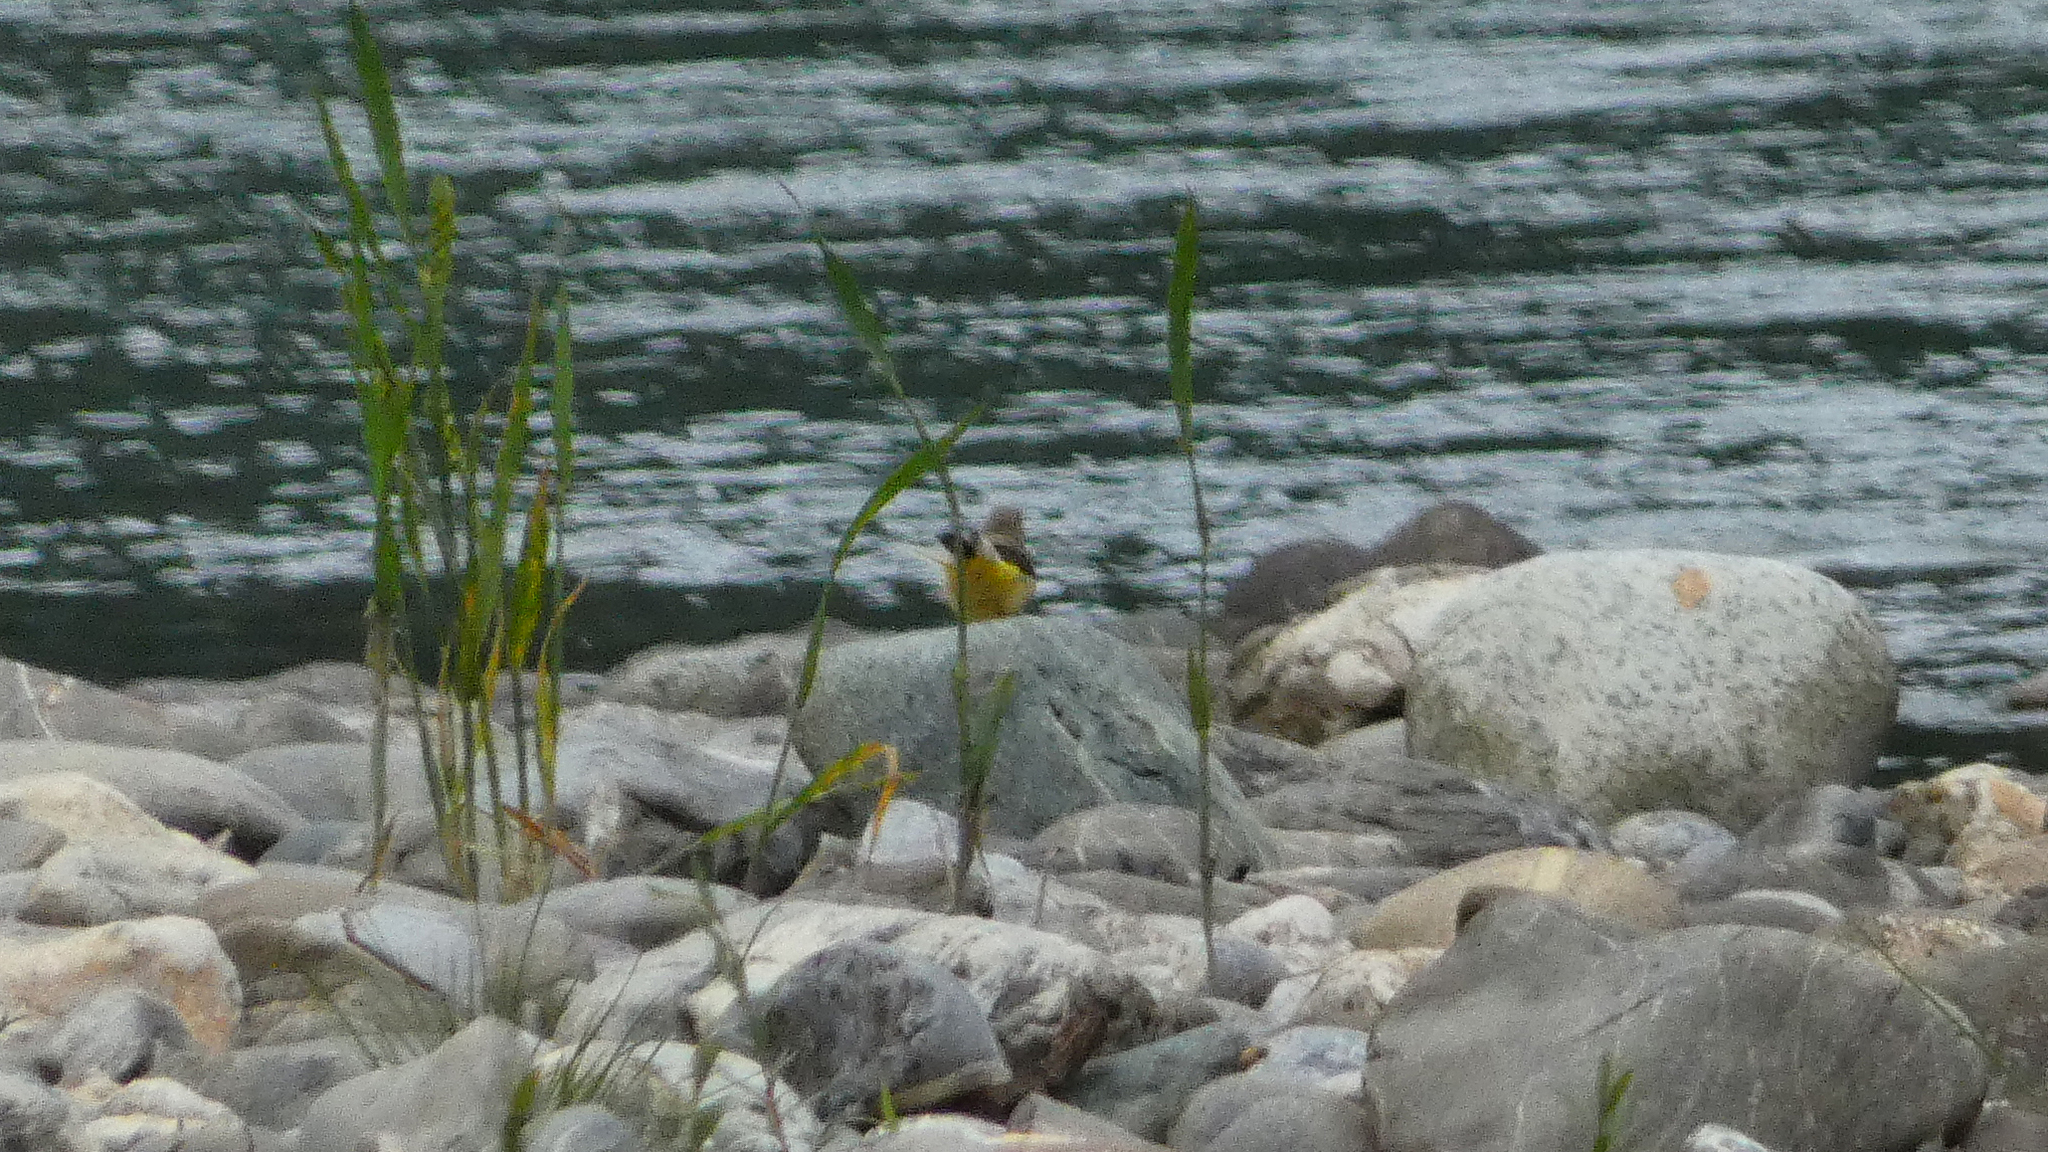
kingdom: Animalia
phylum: Chordata
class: Aves
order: Passeriformes
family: Motacillidae
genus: Motacilla
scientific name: Motacilla cinerea
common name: Grey wagtail
